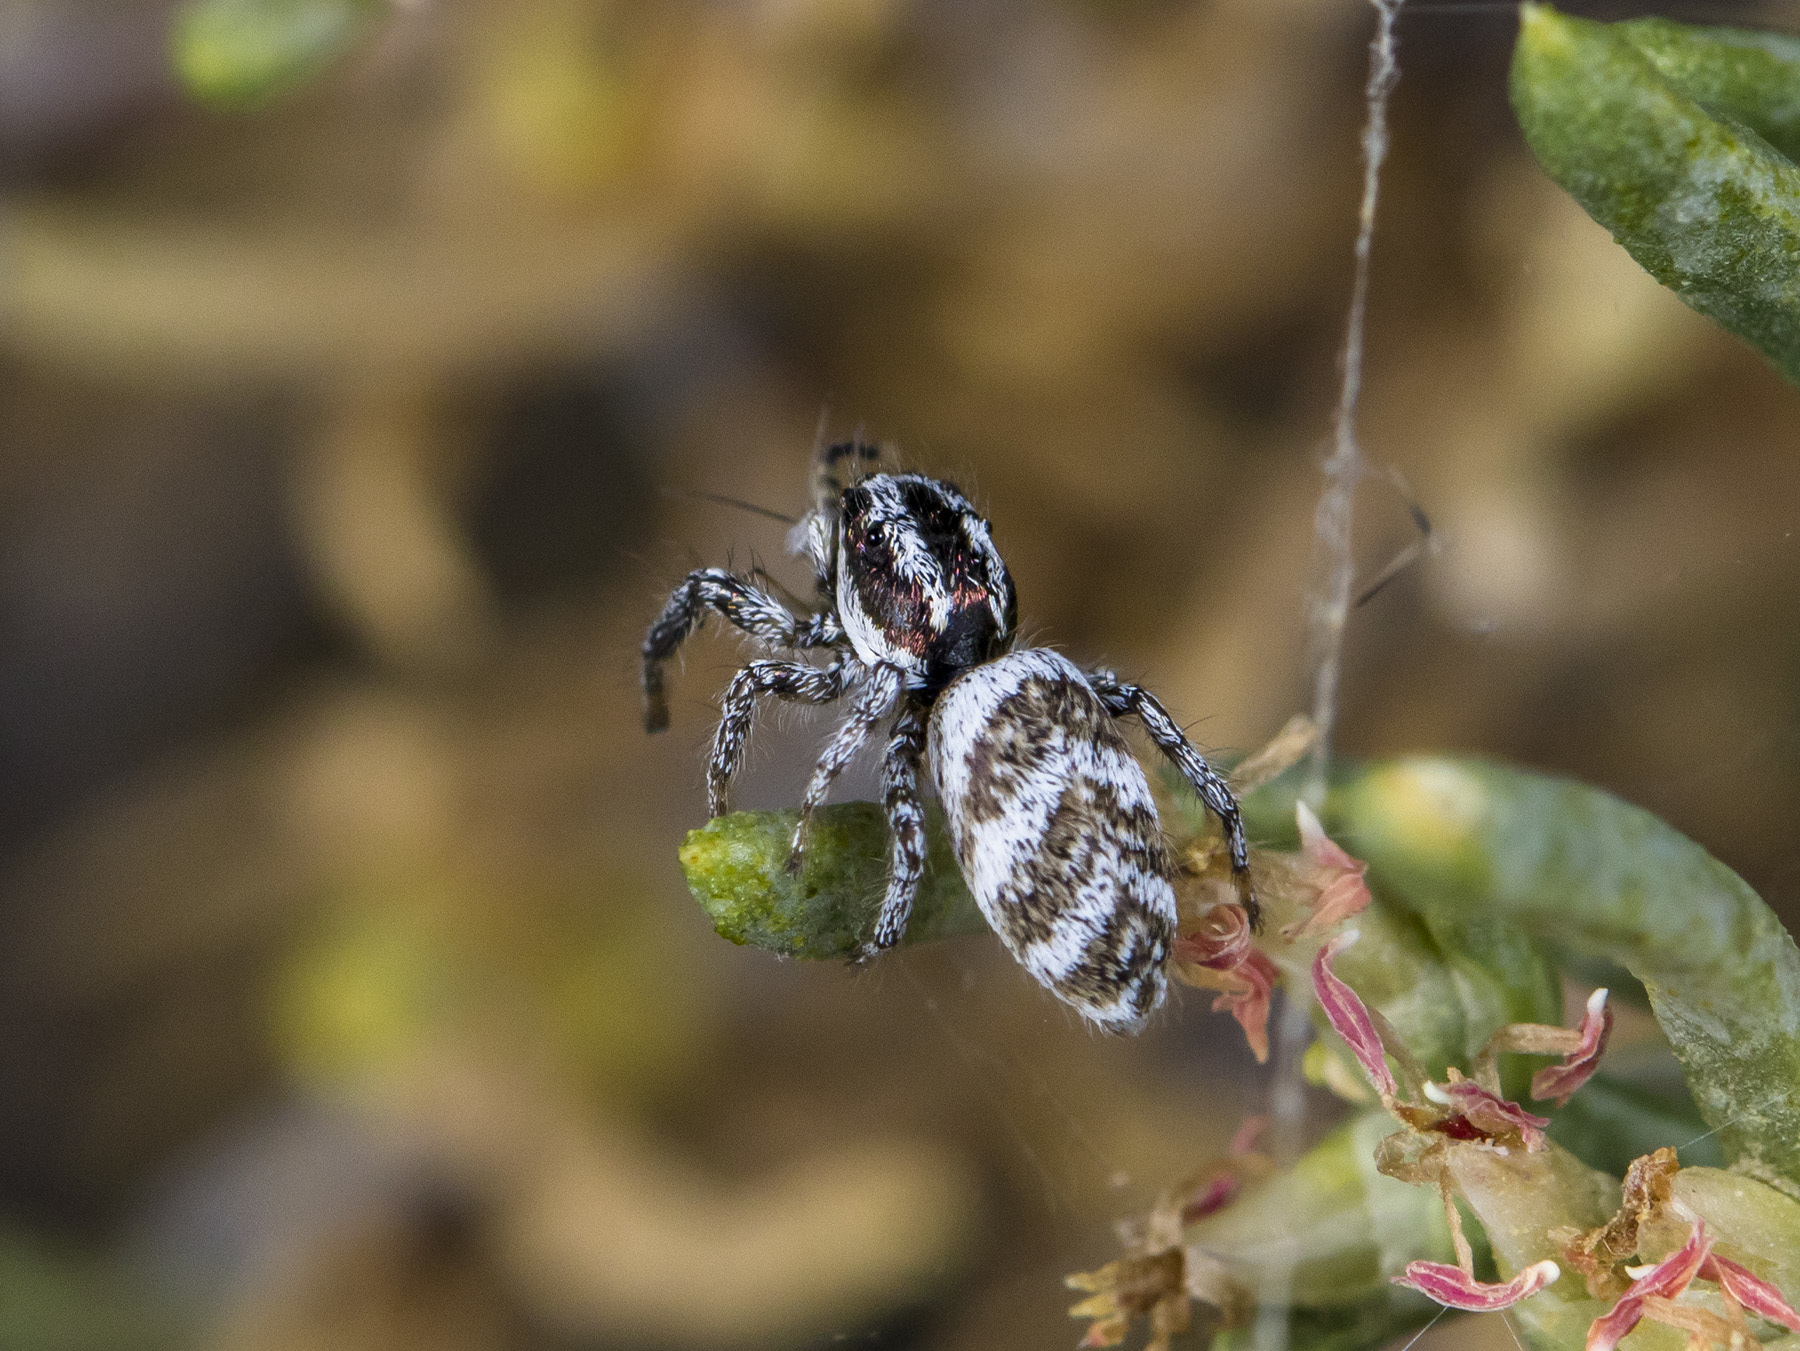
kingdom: Animalia
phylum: Arthropoda
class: Arachnida
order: Araneae
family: Salticidae
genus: Salticus
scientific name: Salticus tricinctus
